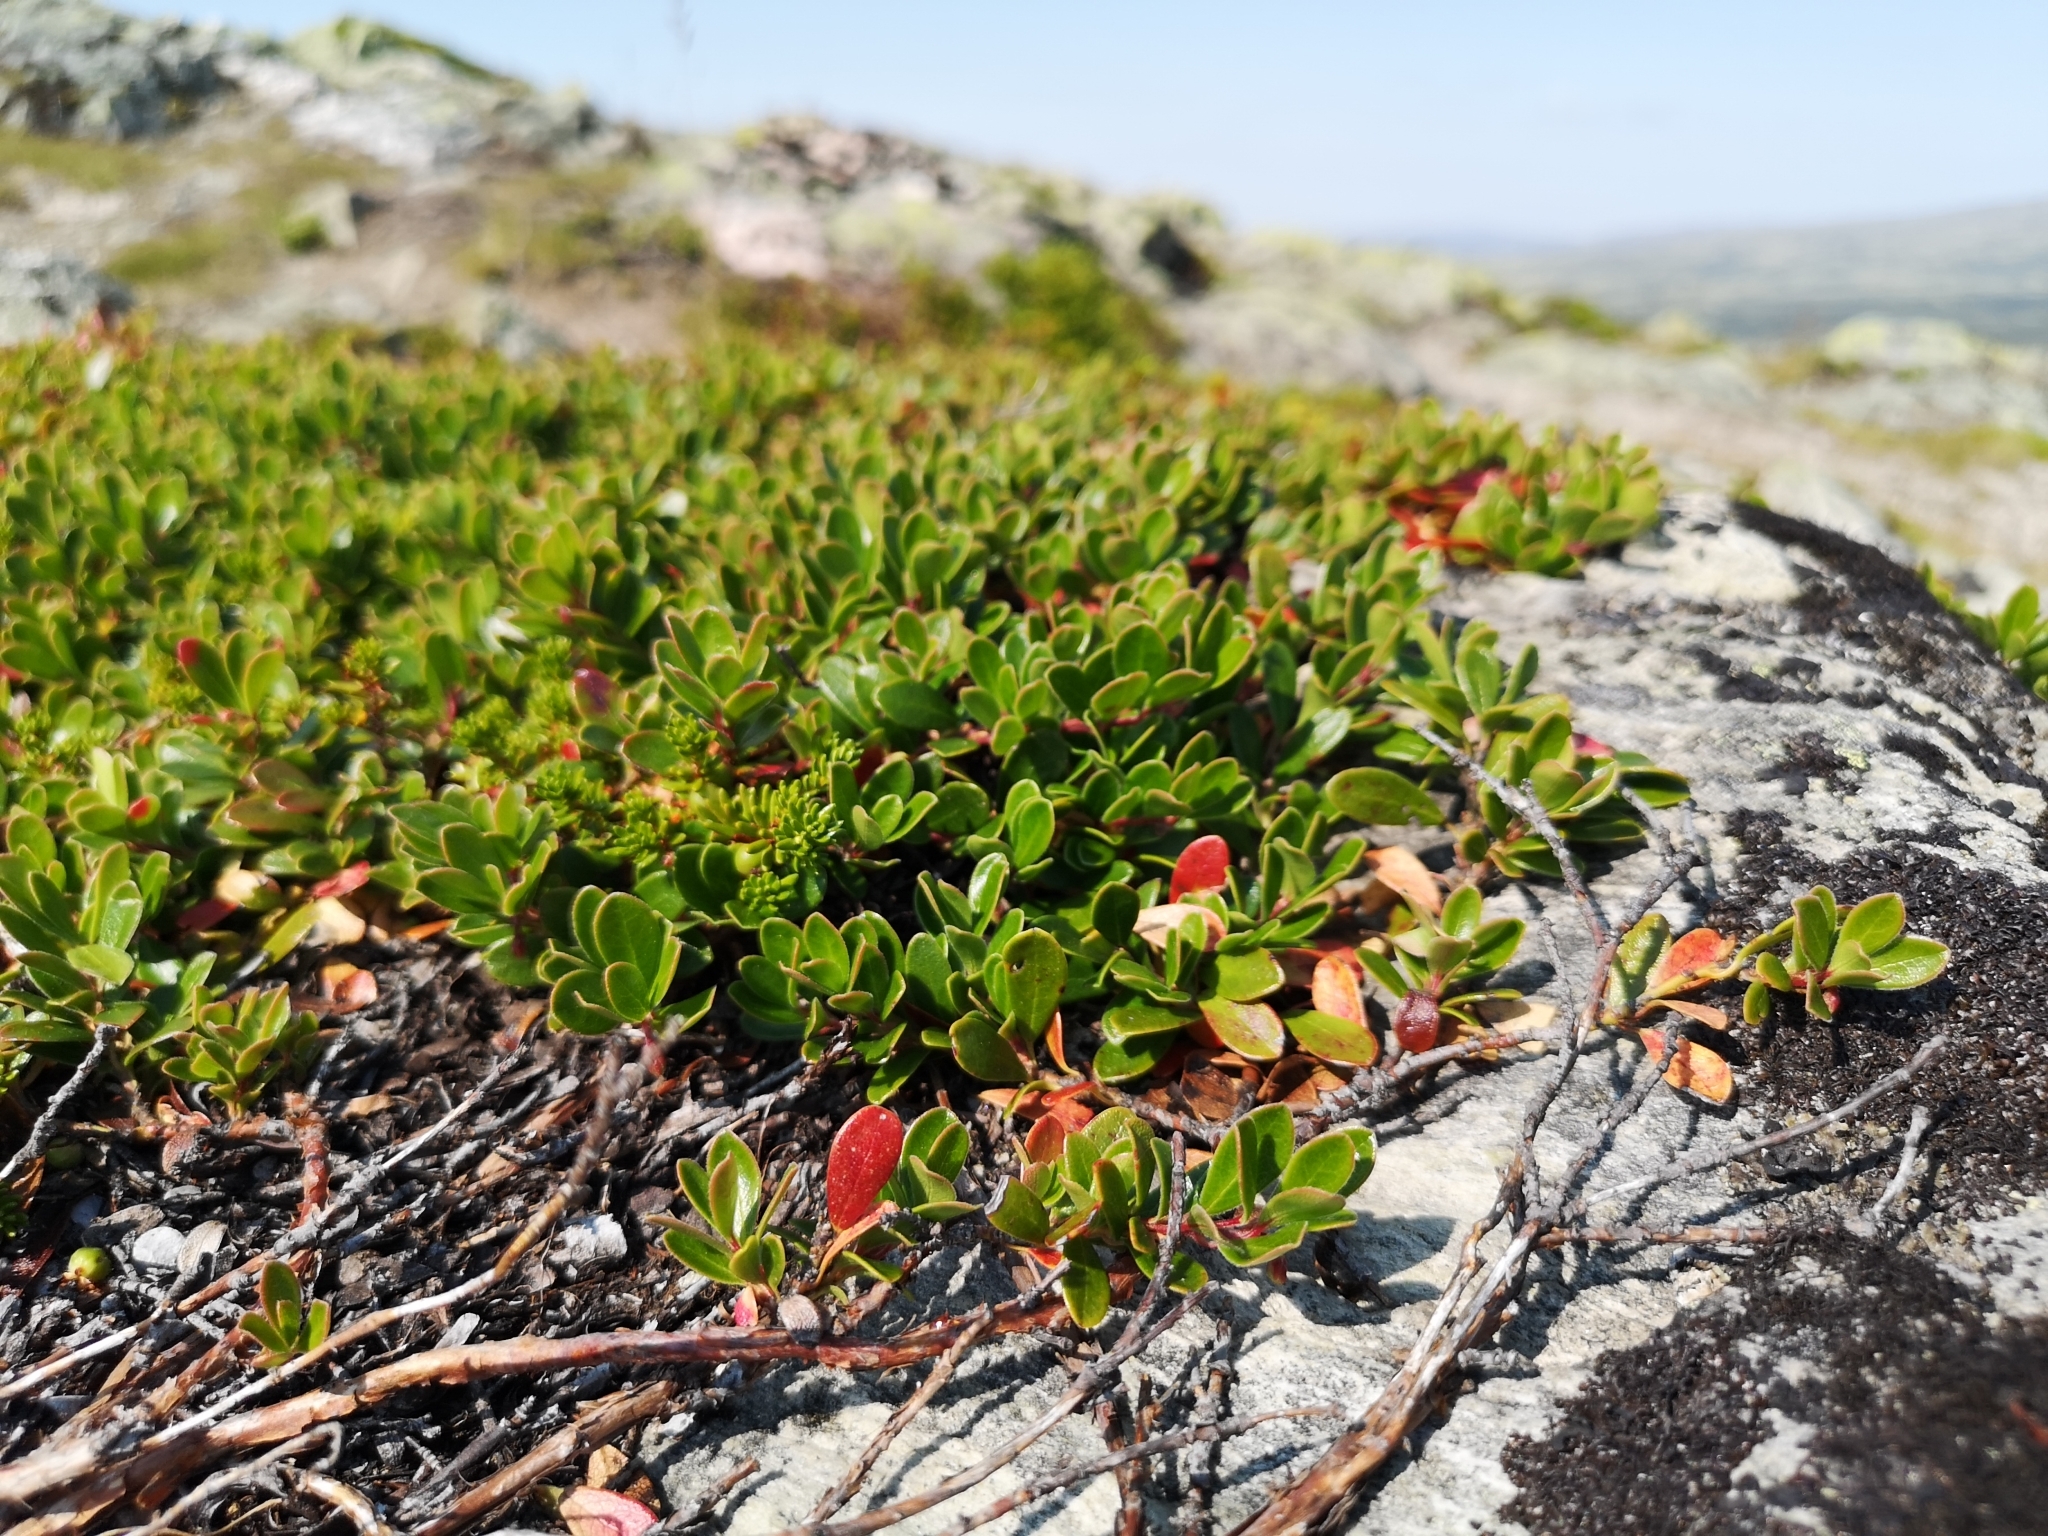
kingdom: Plantae
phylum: Tracheophyta
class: Magnoliopsida
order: Ericales
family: Ericaceae
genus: Arctostaphylos
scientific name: Arctostaphylos uva-ursi
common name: Bearberry
